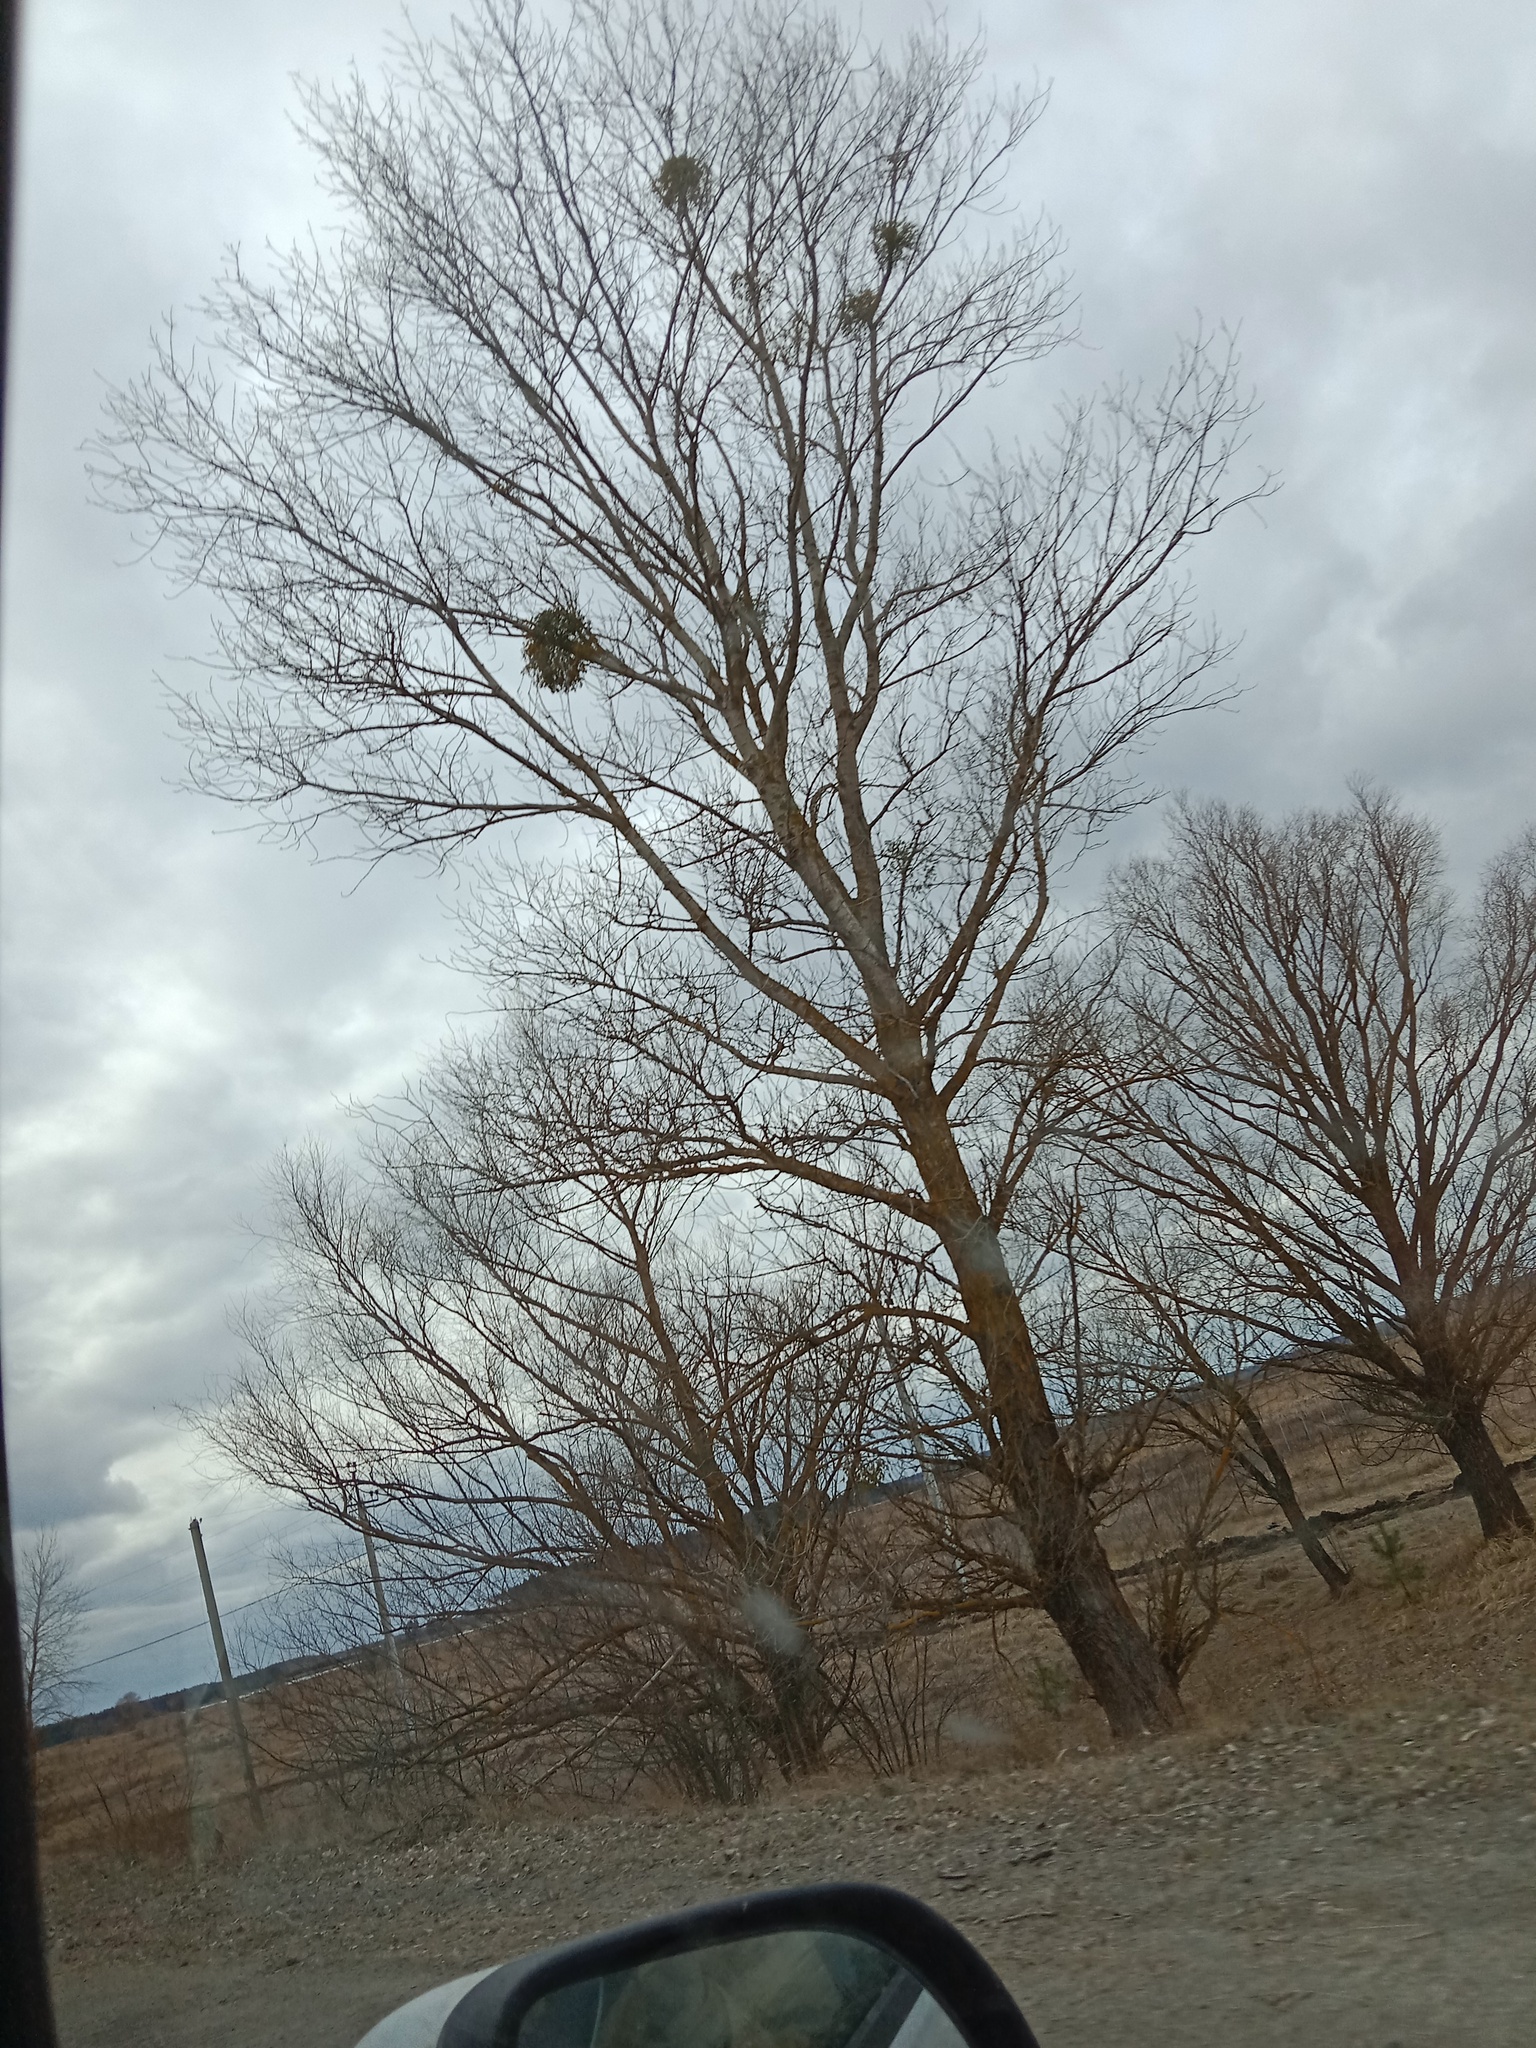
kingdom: Plantae
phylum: Tracheophyta
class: Magnoliopsida
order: Santalales
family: Viscaceae
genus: Viscum
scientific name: Viscum album
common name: Mistletoe
